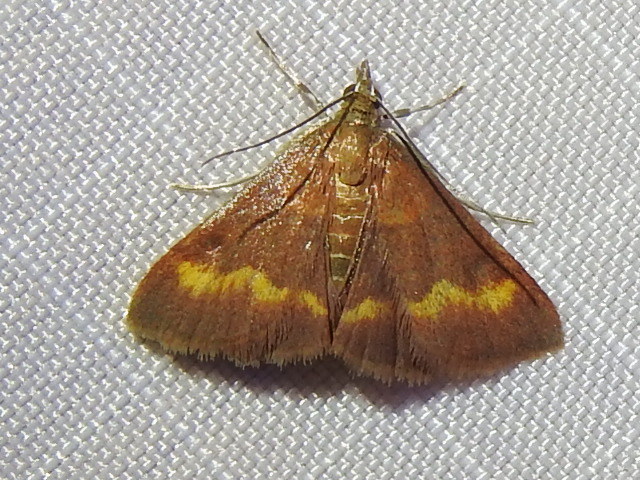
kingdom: Animalia
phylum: Arthropoda
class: Insecta
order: Lepidoptera
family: Crambidae
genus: Pyrausta
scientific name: Pyrausta pseuderosnealis
